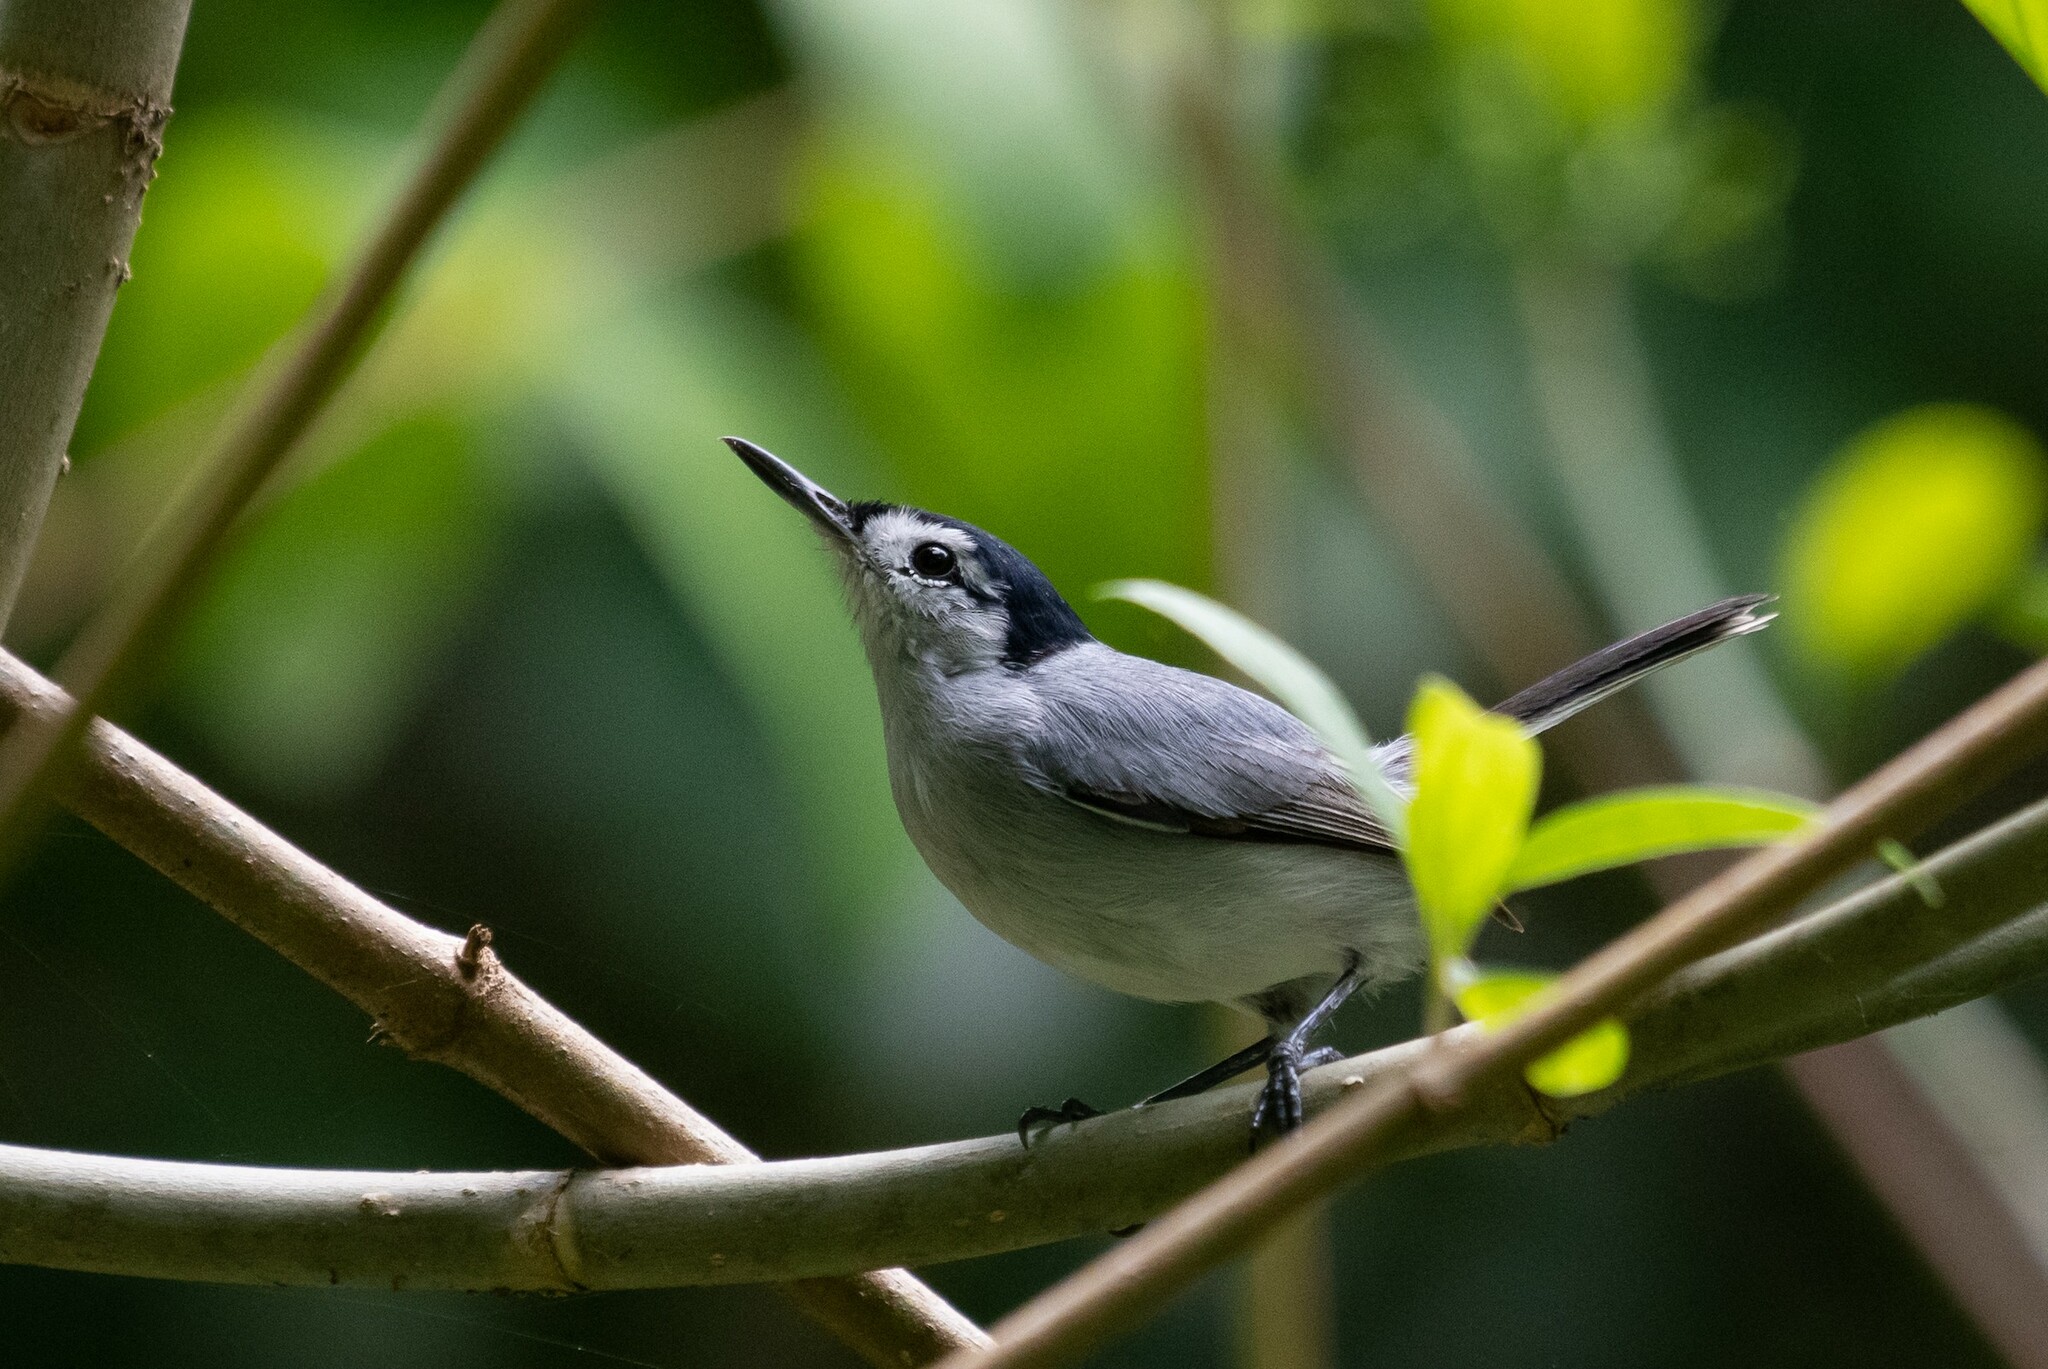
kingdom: Animalia
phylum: Chordata
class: Aves
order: Passeriformes
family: Polioptilidae
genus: Polioptila
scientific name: Polioptila plumbea
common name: Tropical gnatcatcher
